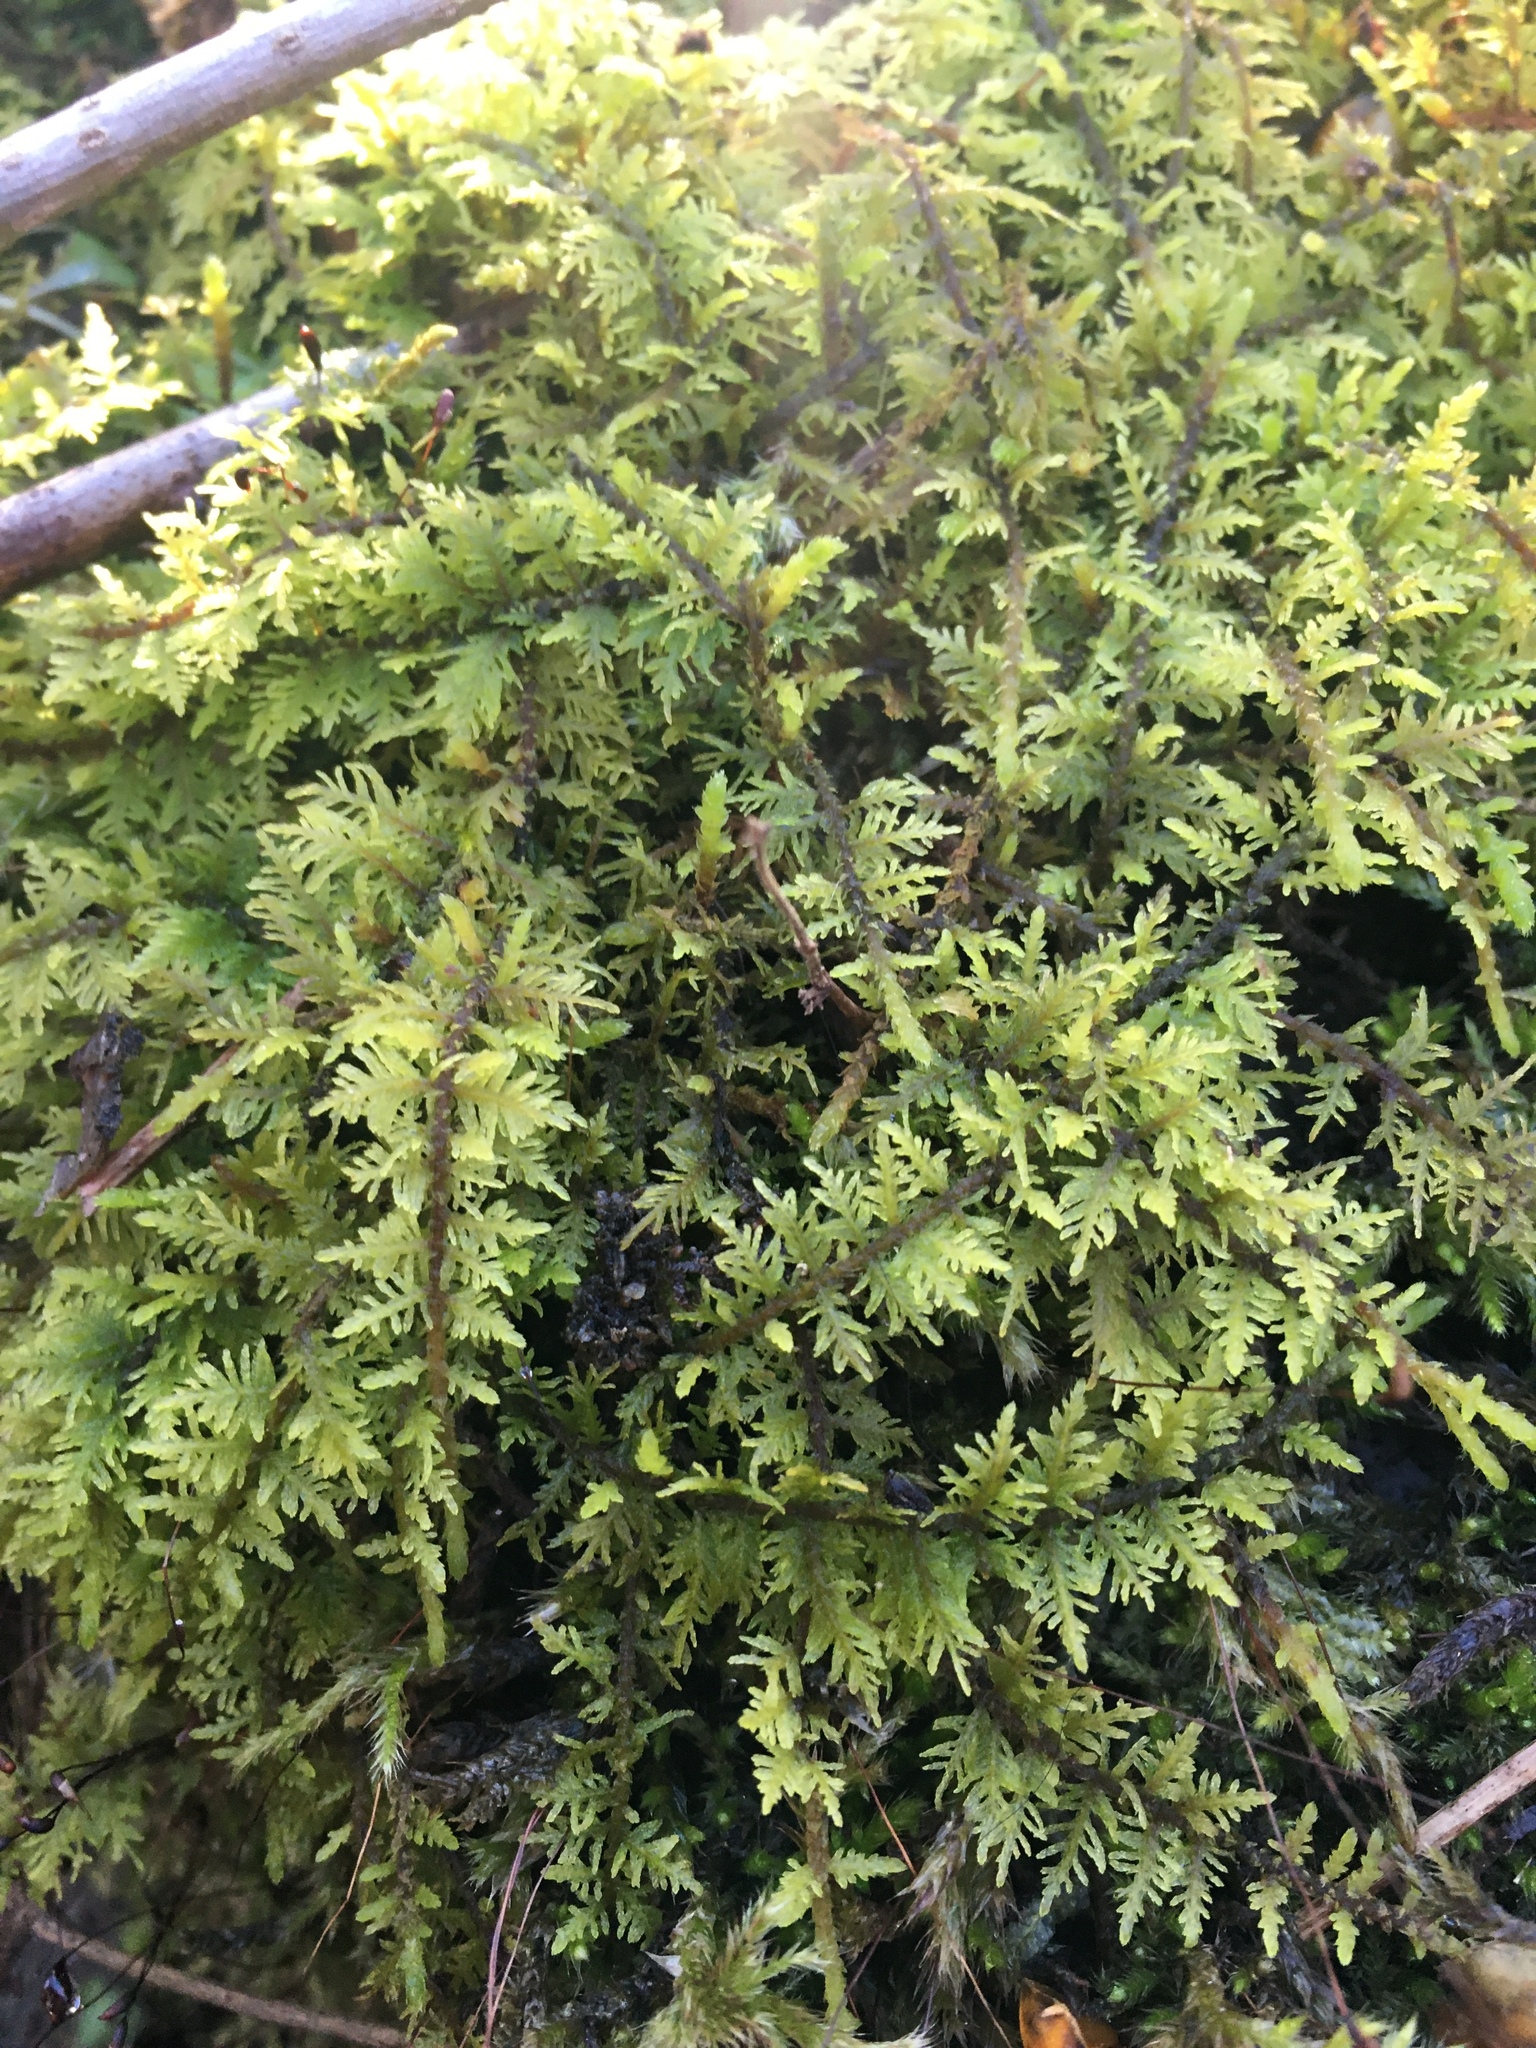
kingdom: Plantae
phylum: Bryophyta
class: Bryopsida
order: Hypnales
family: Thuidiaceae
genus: Thuidium
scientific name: Thuidium delicatulum
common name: Delicate fern moss
